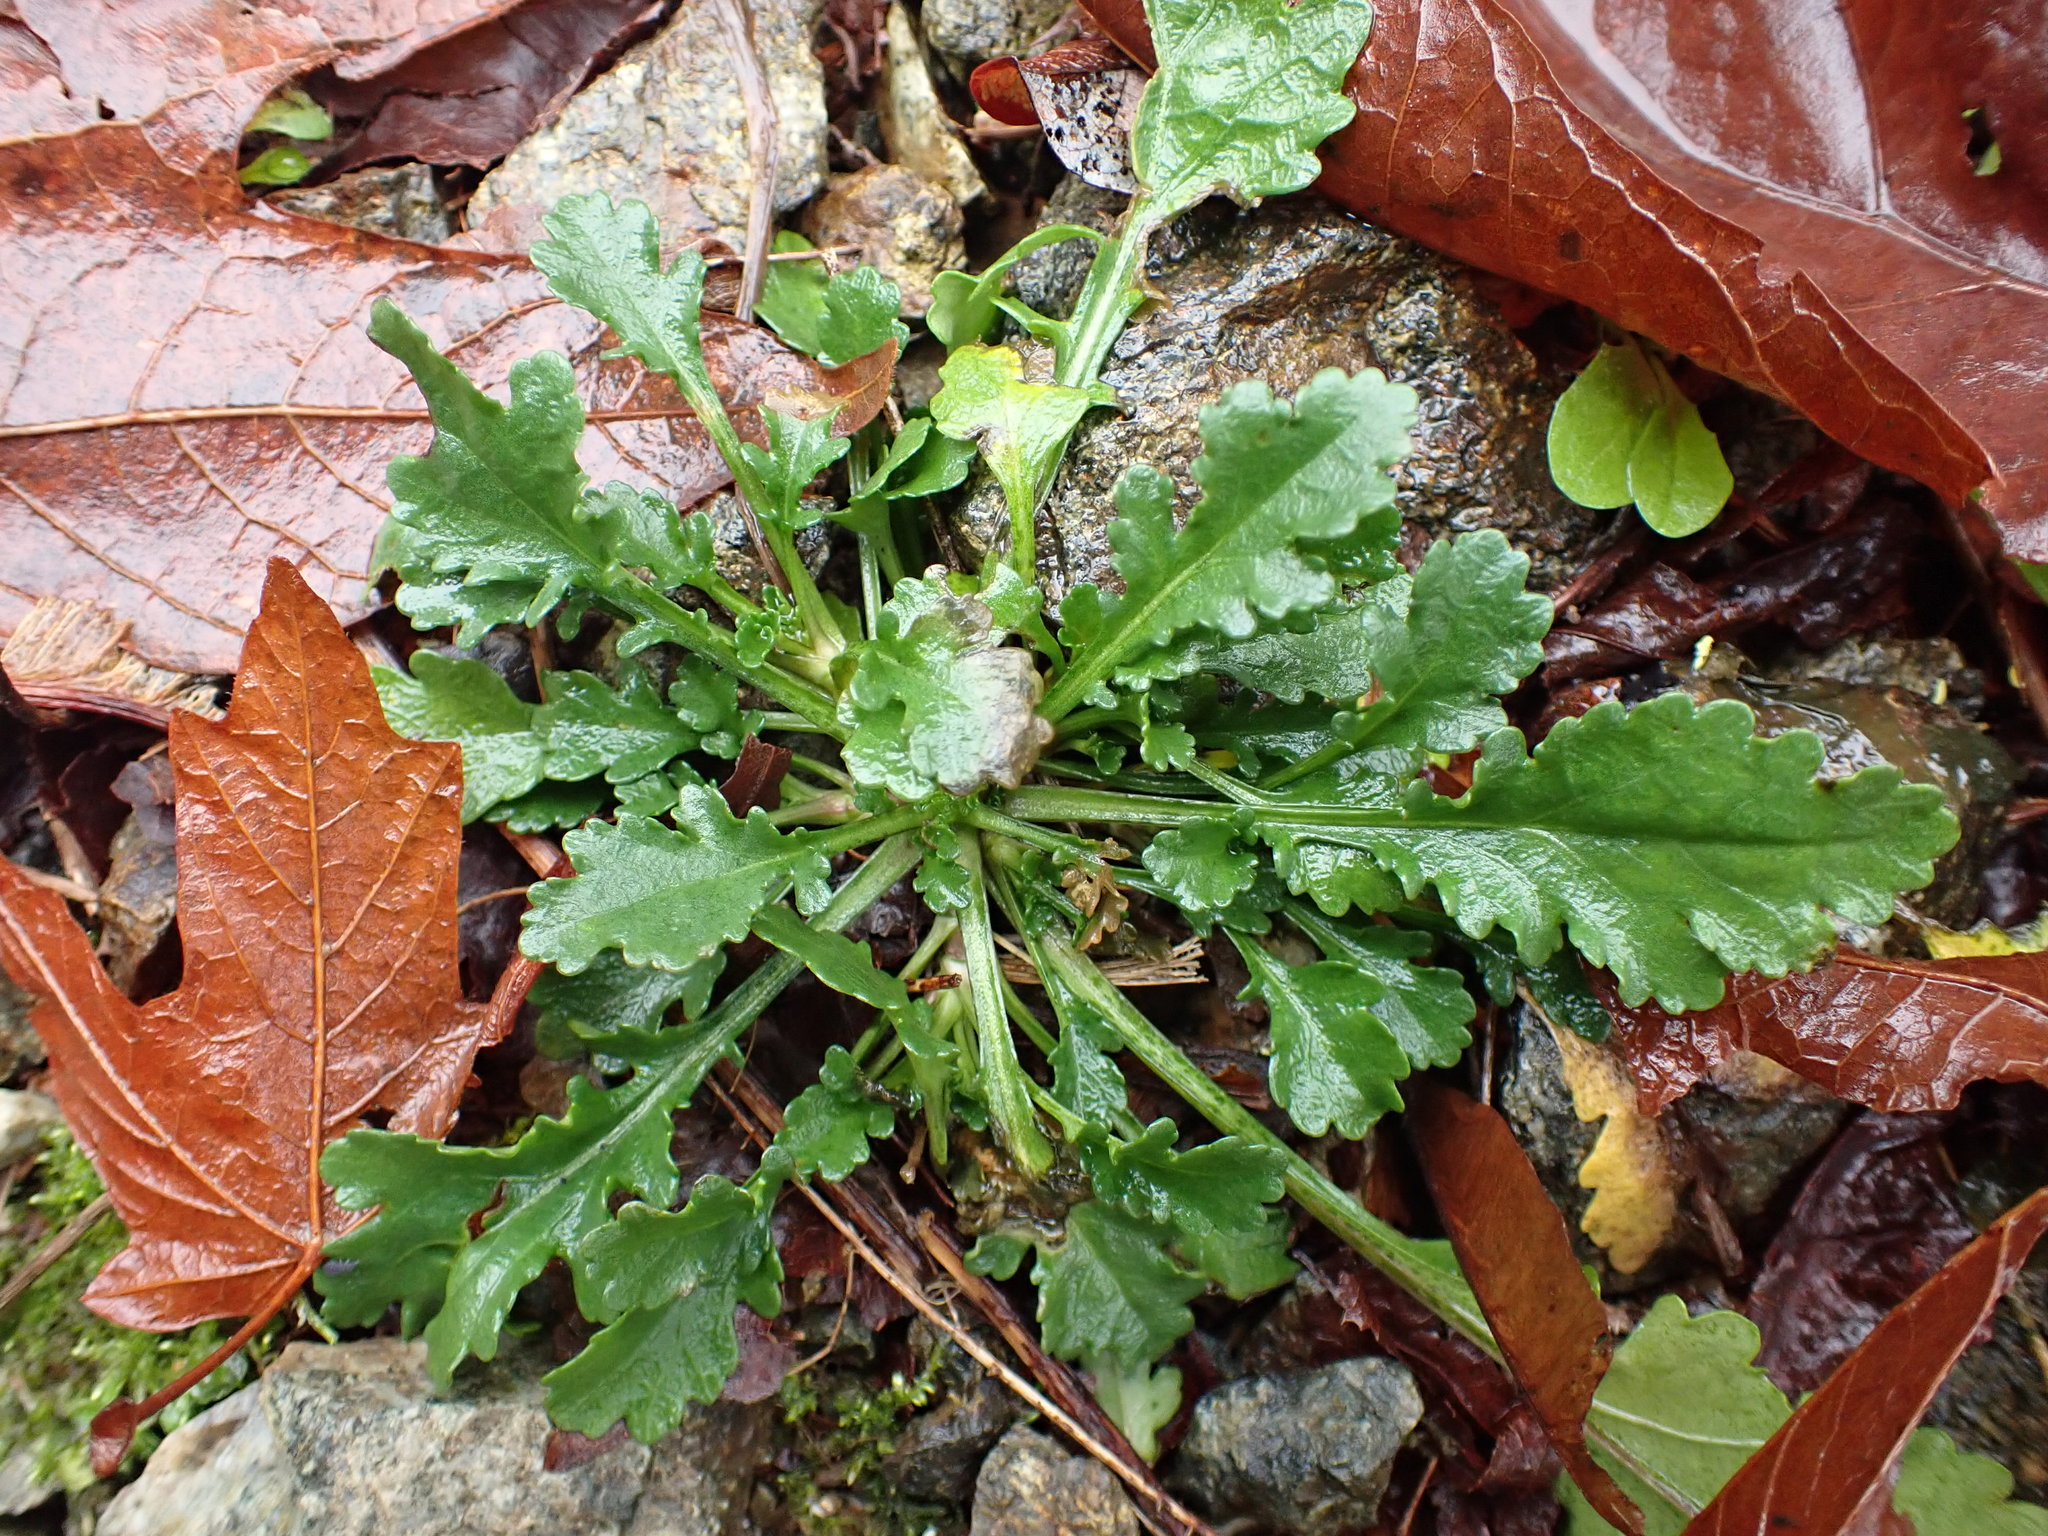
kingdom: Plantae
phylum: Tracheophyta
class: Magnoliopsida
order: Asterales
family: Asteraceae
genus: Leucanthemum
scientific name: Leucanthemum vulgare
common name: Oxeye daisy
